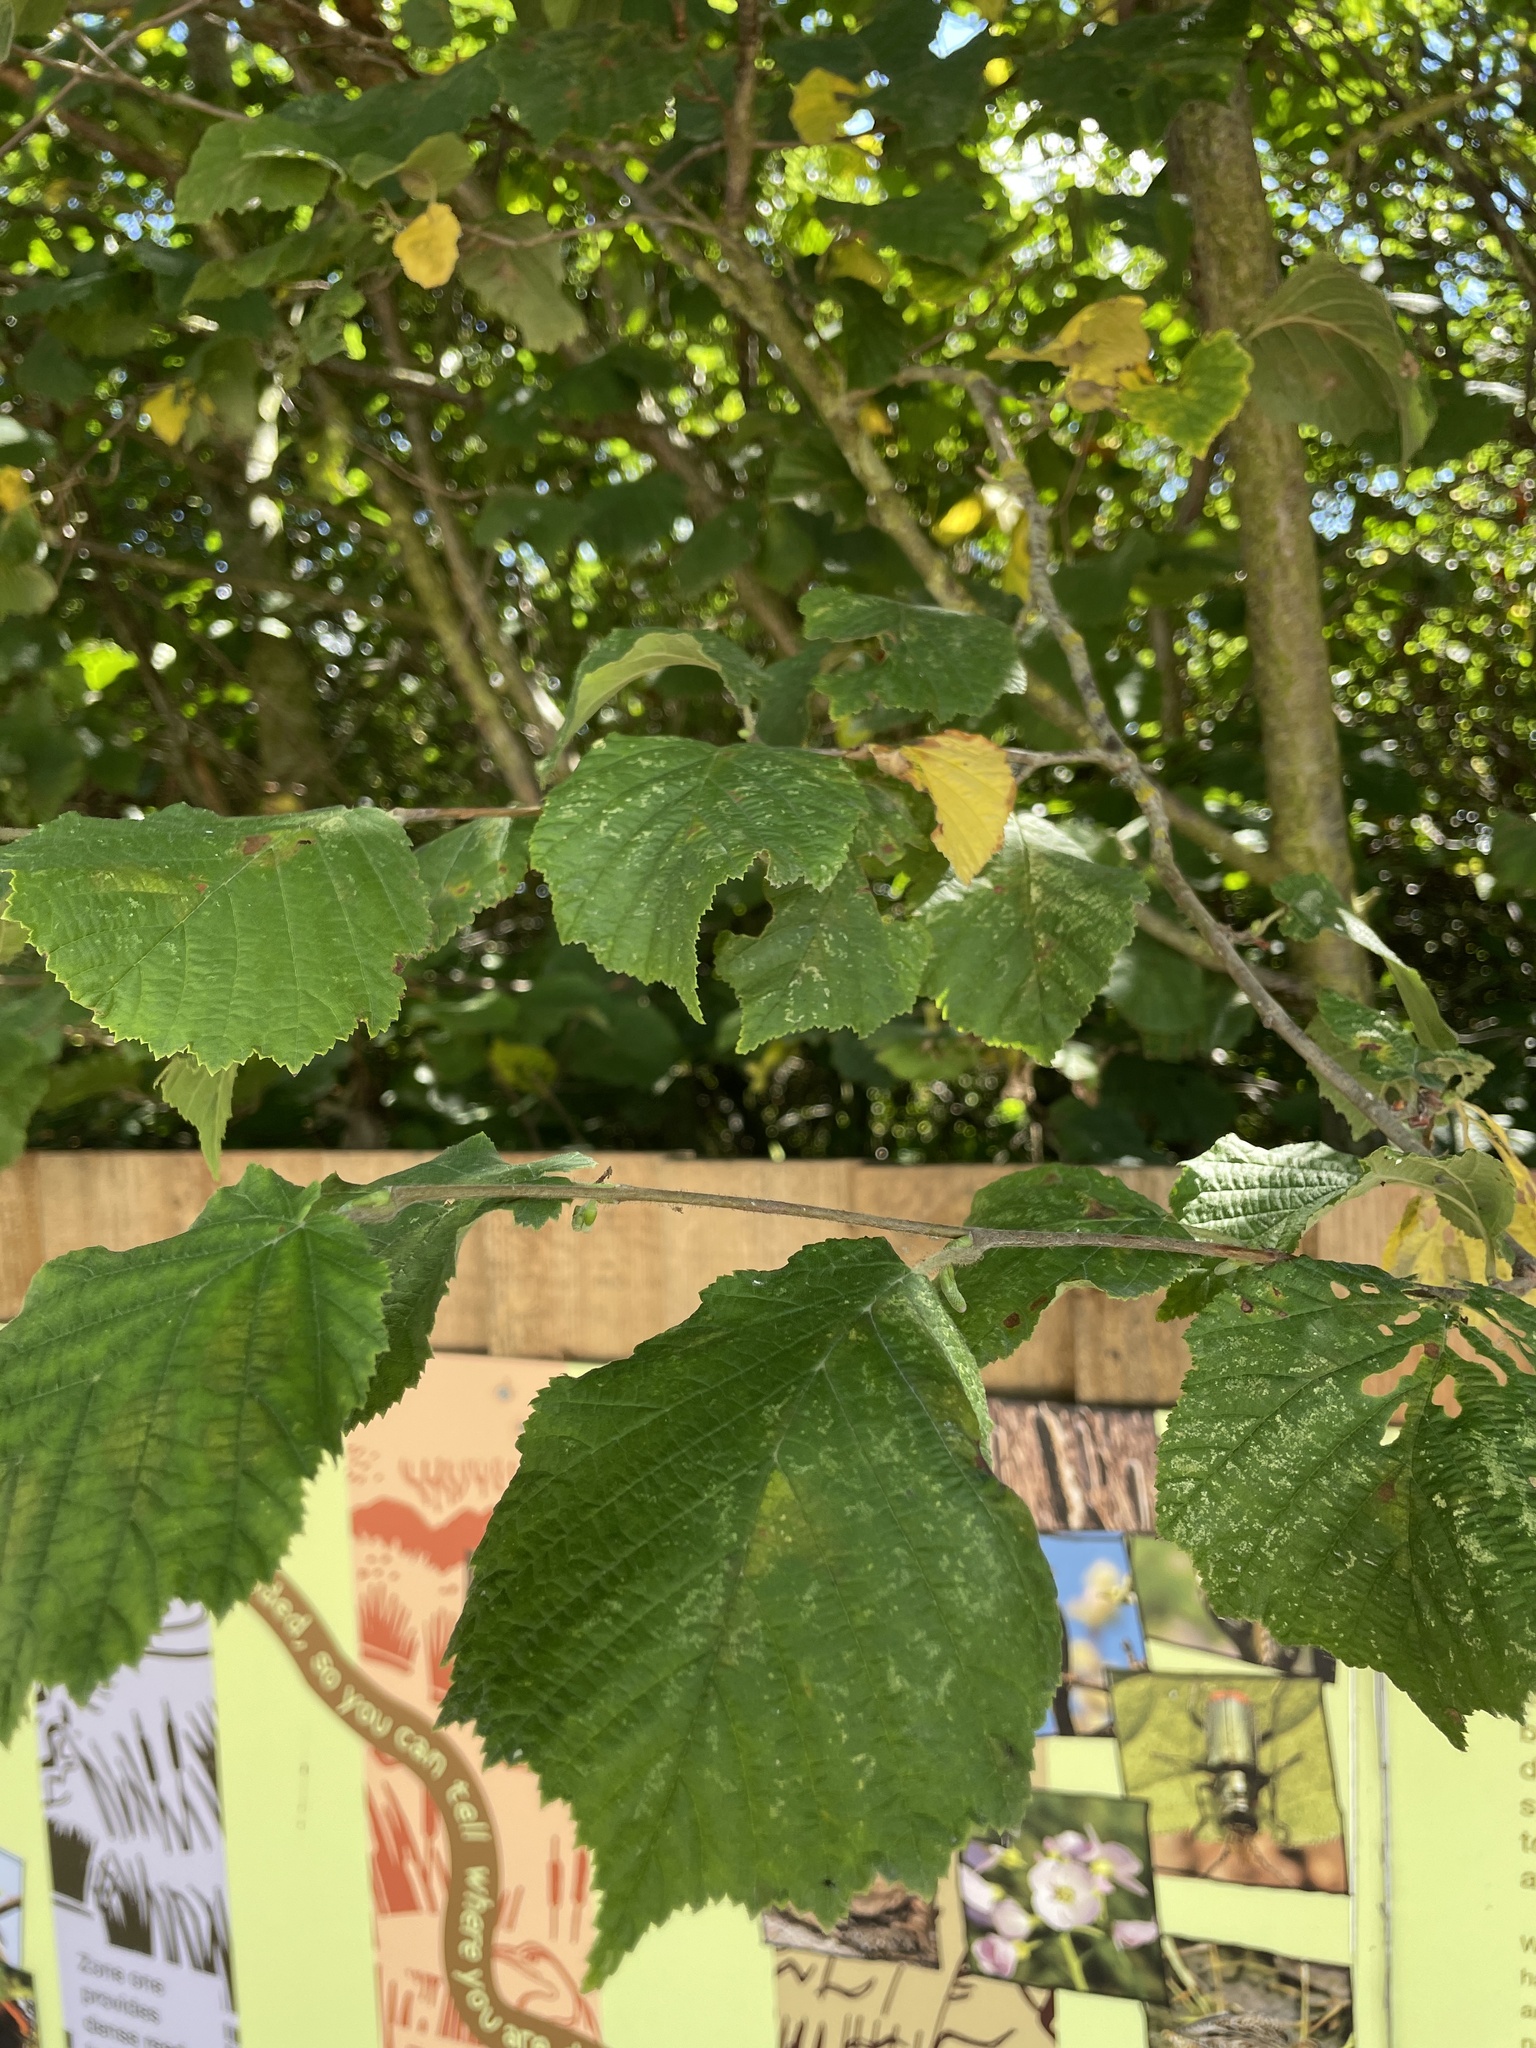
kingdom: Plantae
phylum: Tracheophyta
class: Magnoliopsida
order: Fagales
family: Betulaceae
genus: Corylus
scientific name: Corylus avellana
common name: European hazel
